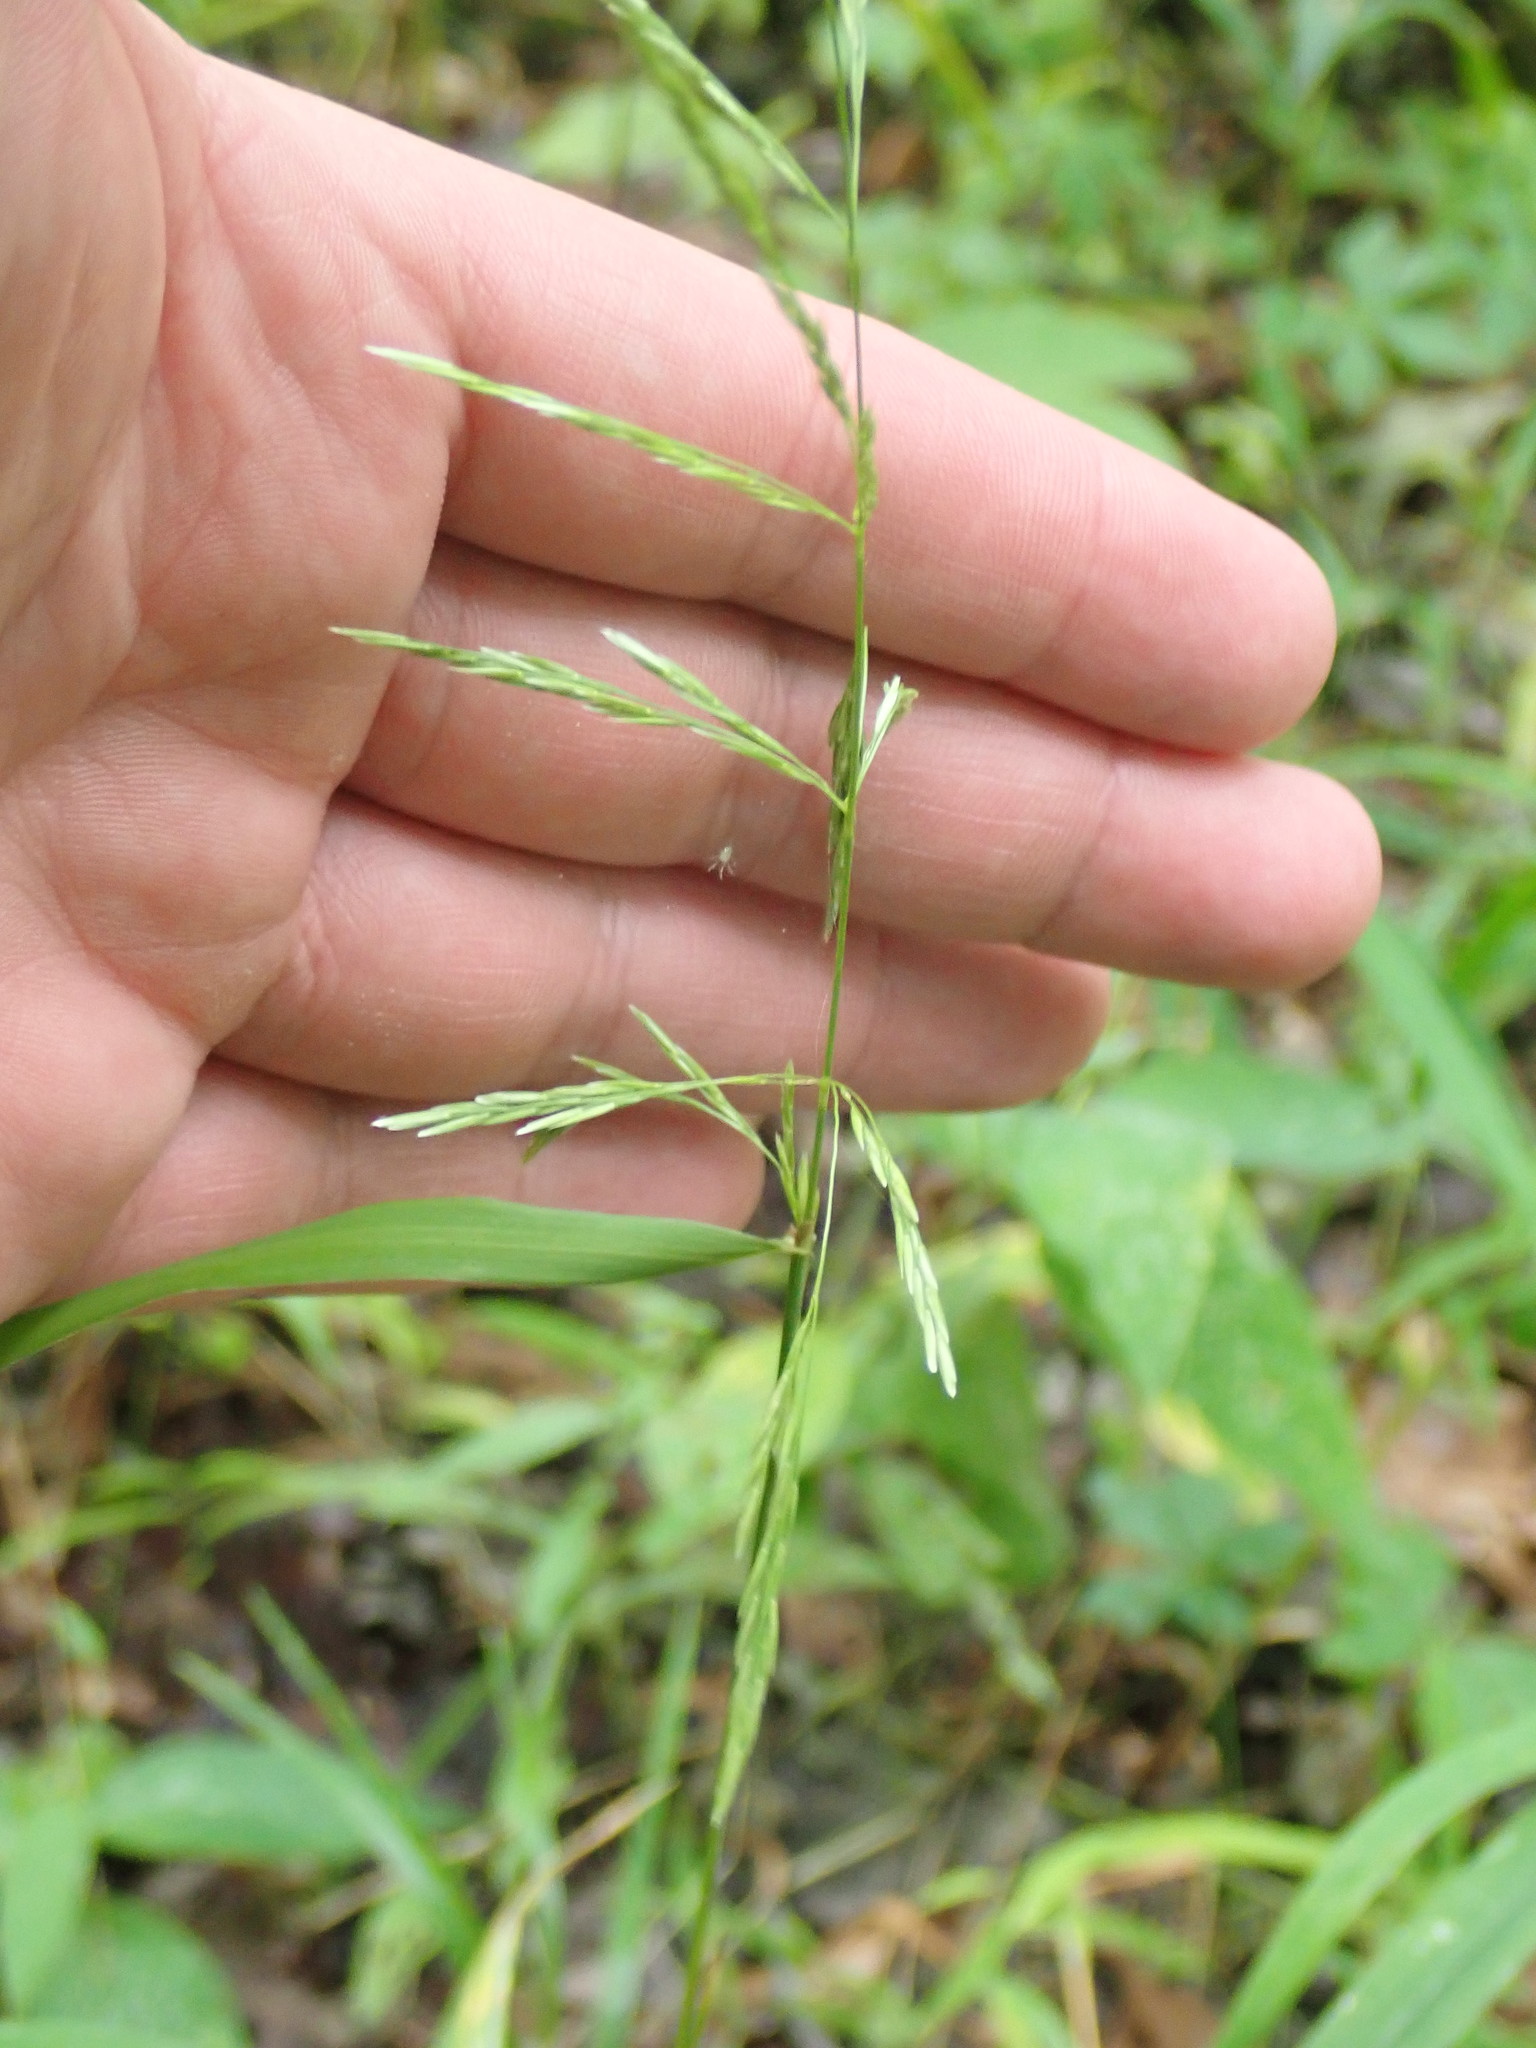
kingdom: Plantae
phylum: Tracheophyta
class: Liliopsida
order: Poales
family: Poaceae
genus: Cinna
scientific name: Cinna arundinacea
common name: Stout woodreed
